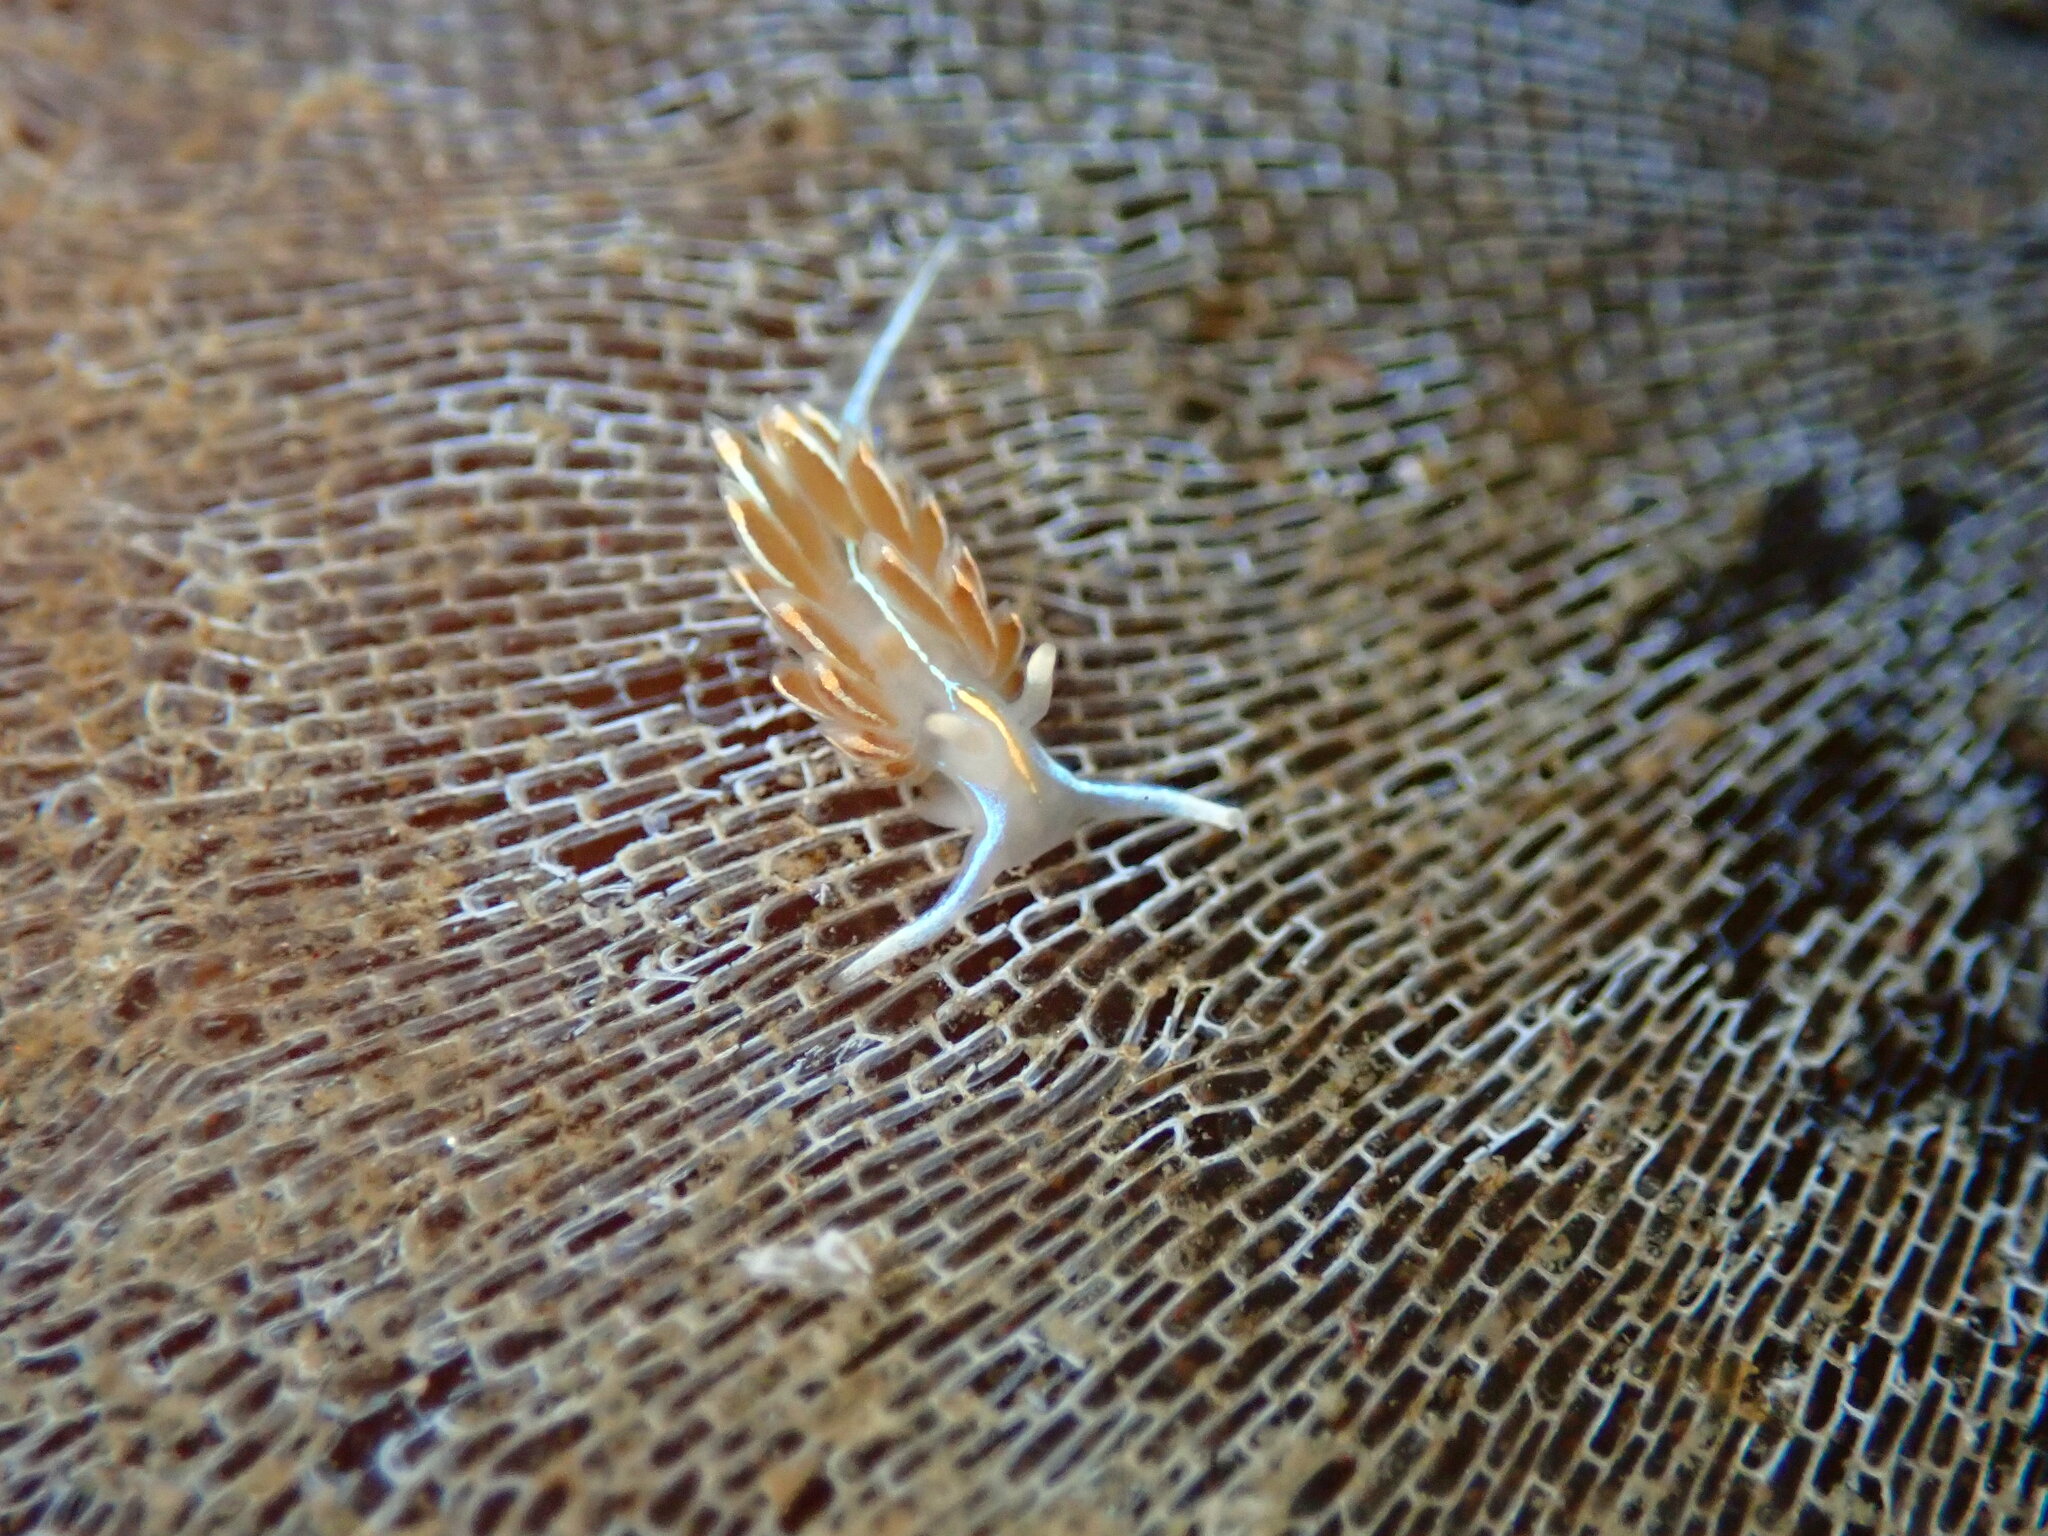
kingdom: Animalia
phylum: Mollusca
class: Gastropoda
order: Nudibranchia
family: Myrrhinidae
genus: Hermissenda
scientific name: Hermissenda crassicornis
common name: Hermissenda
